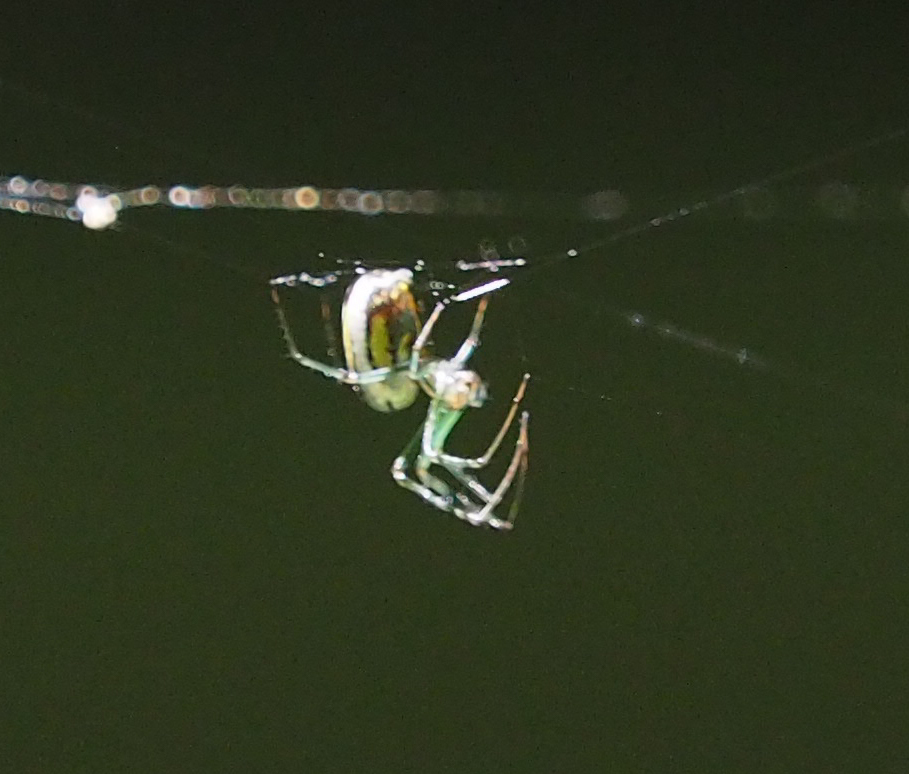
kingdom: Animalia
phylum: Arthropoda
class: Arachnida
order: Araneae
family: Tetragnathidae
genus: Leucauge
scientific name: Leucauge venusta
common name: Longjawed orb weavers
